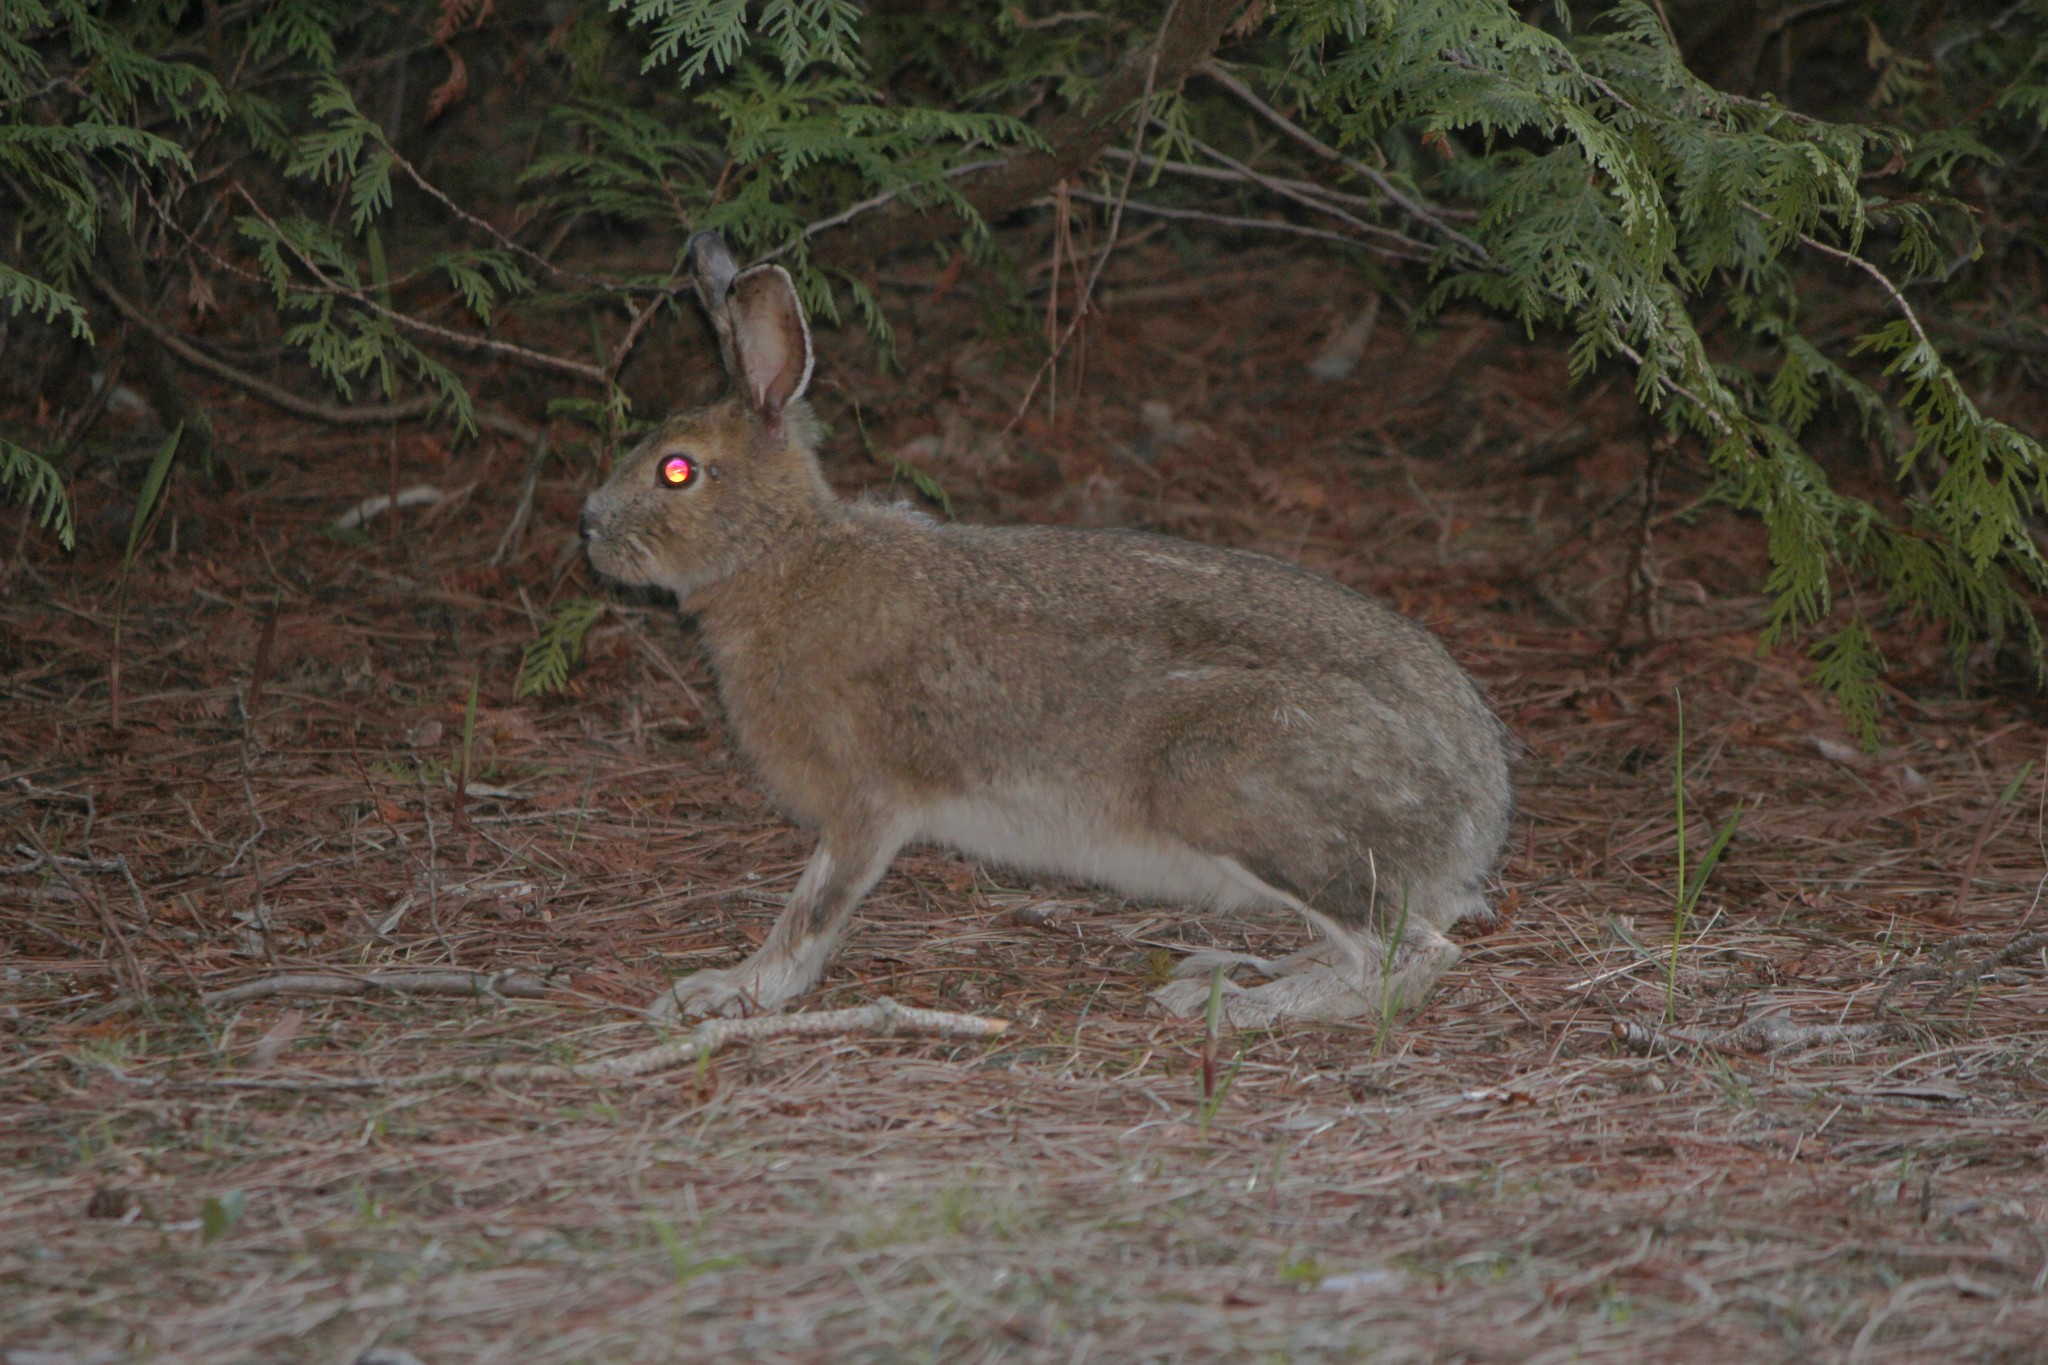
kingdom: Animalia
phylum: Chordata
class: Mammalia
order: Lagomorpha
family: Leporidae
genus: Lepus
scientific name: Lepus americanus
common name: Snowshoe hare
